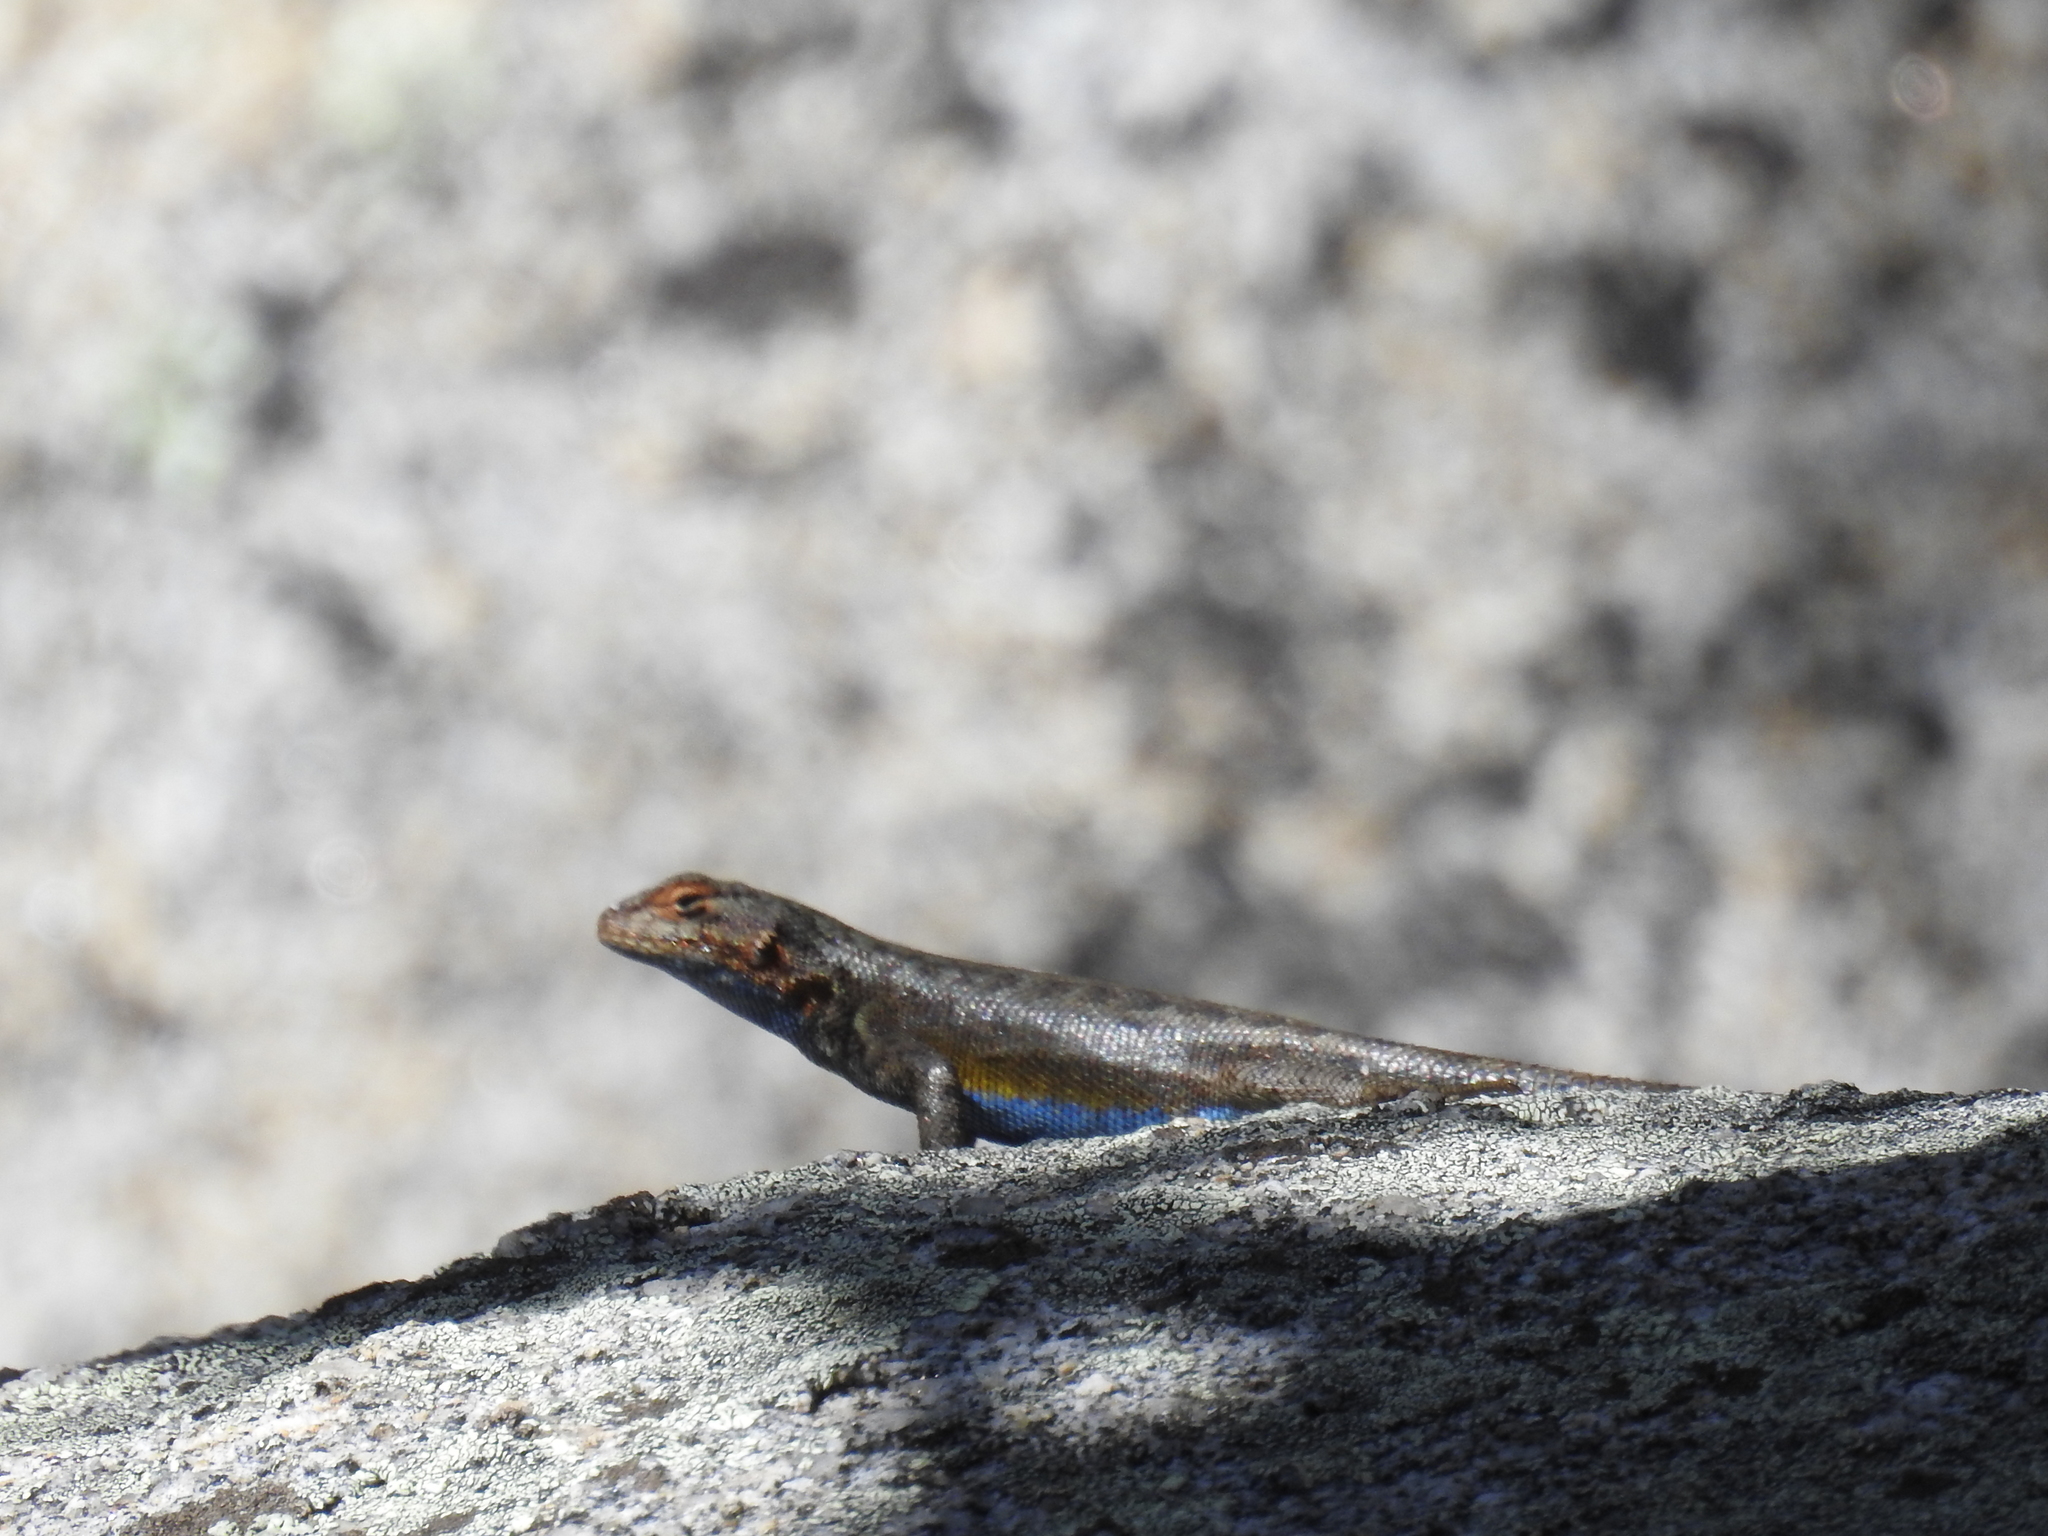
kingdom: Animalia
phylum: Chordata
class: Squamata
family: Phrynosomatidae
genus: Sceloporus
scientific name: Sceloporus graciosus
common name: Sagebrush lizard
